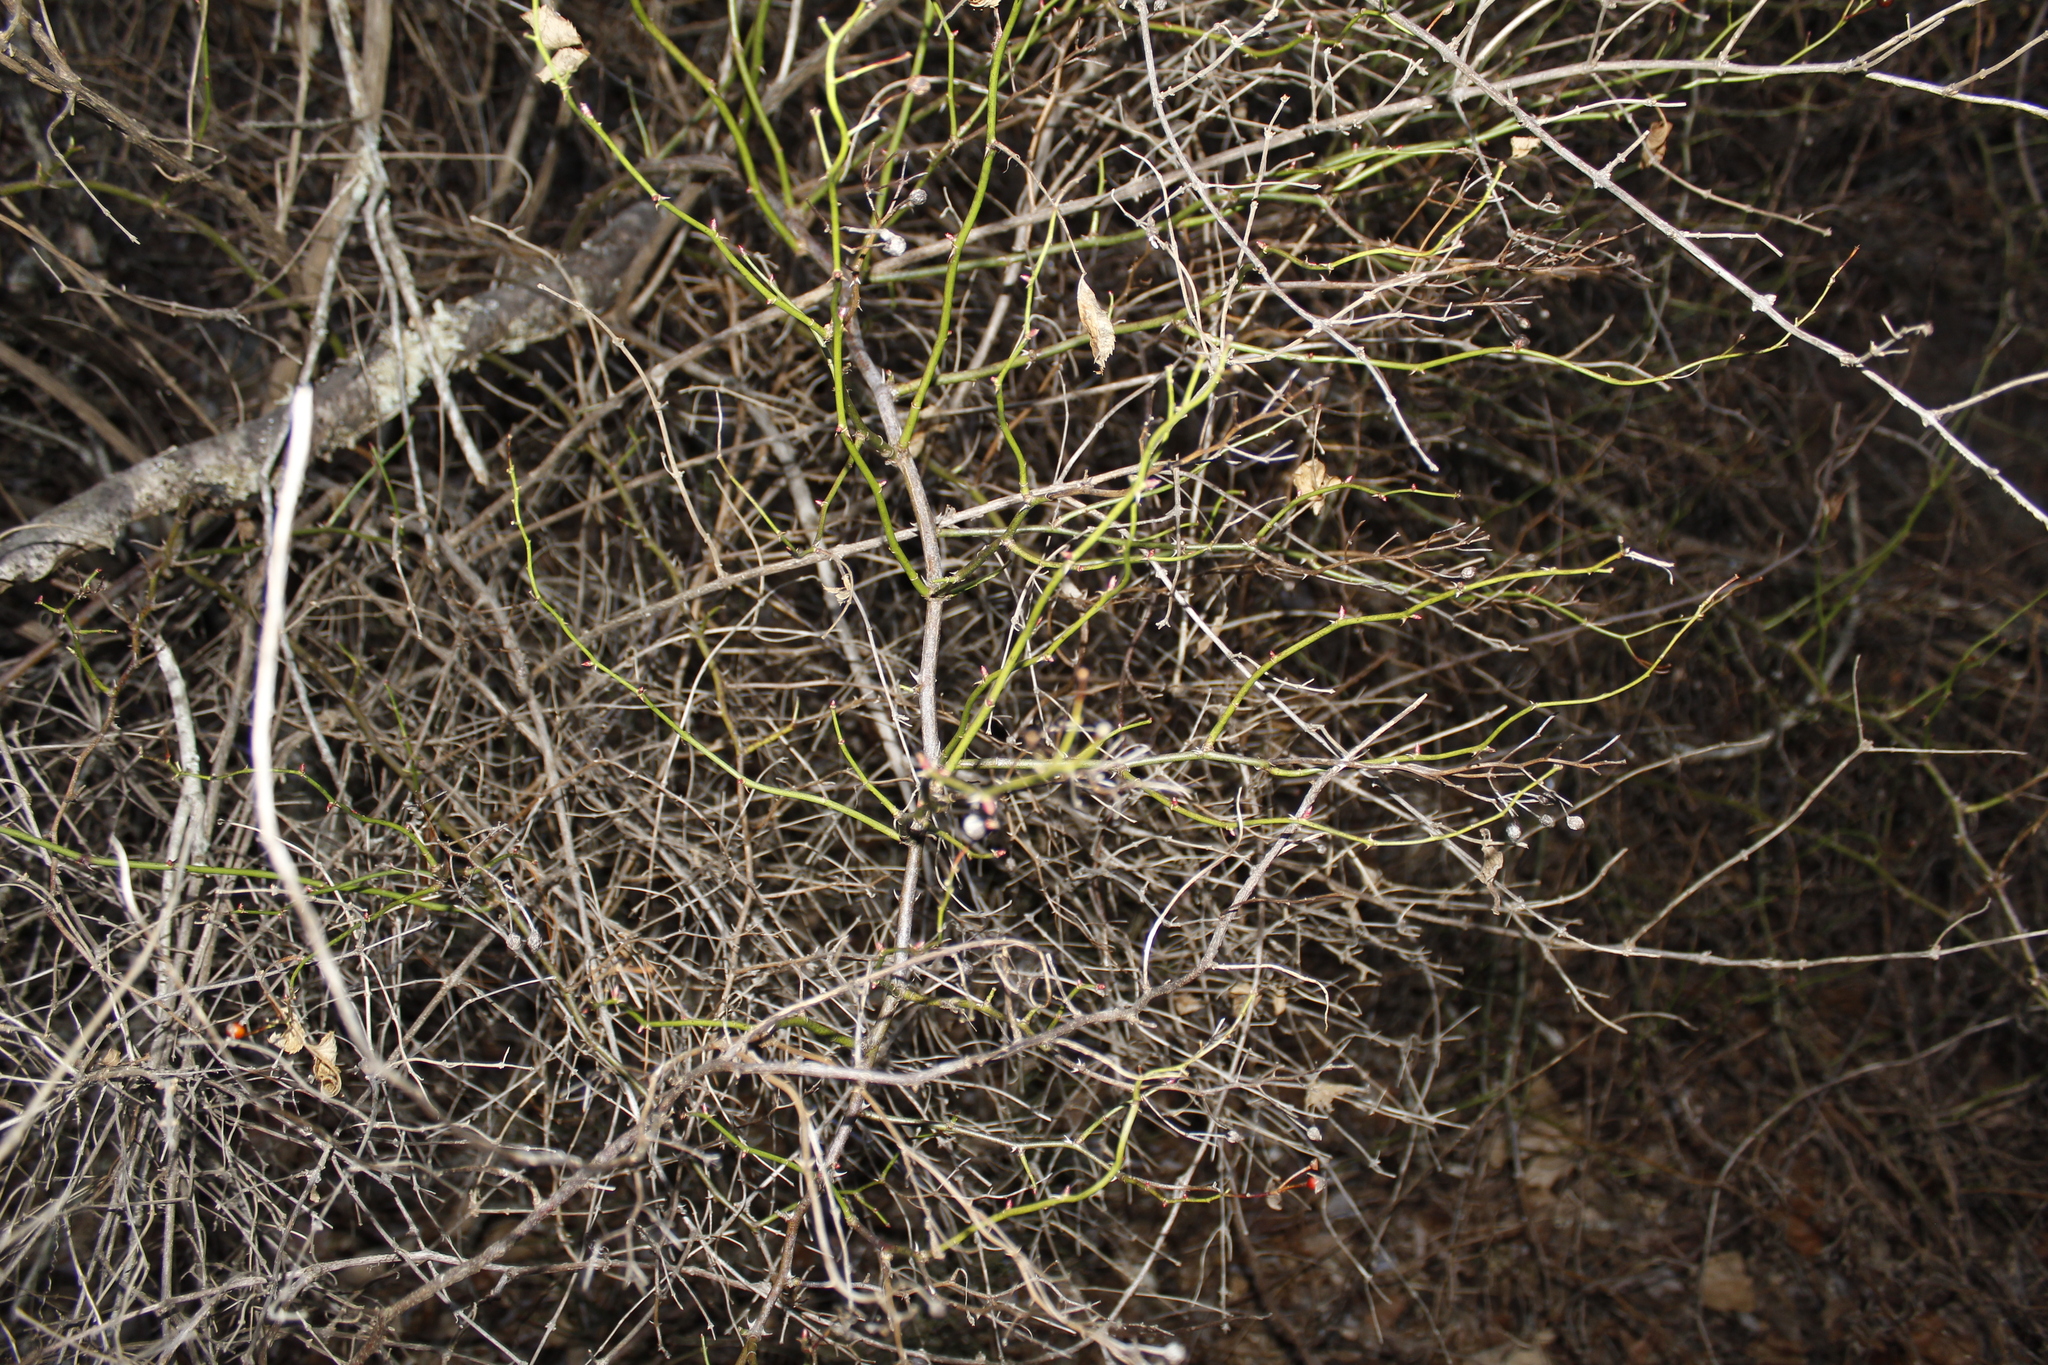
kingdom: Plantae
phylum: Tracheophyta
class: Magnoliopsida
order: Rosales
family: Rosaceae
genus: Rosa
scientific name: Rosa multiflora
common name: Multiflora rose
